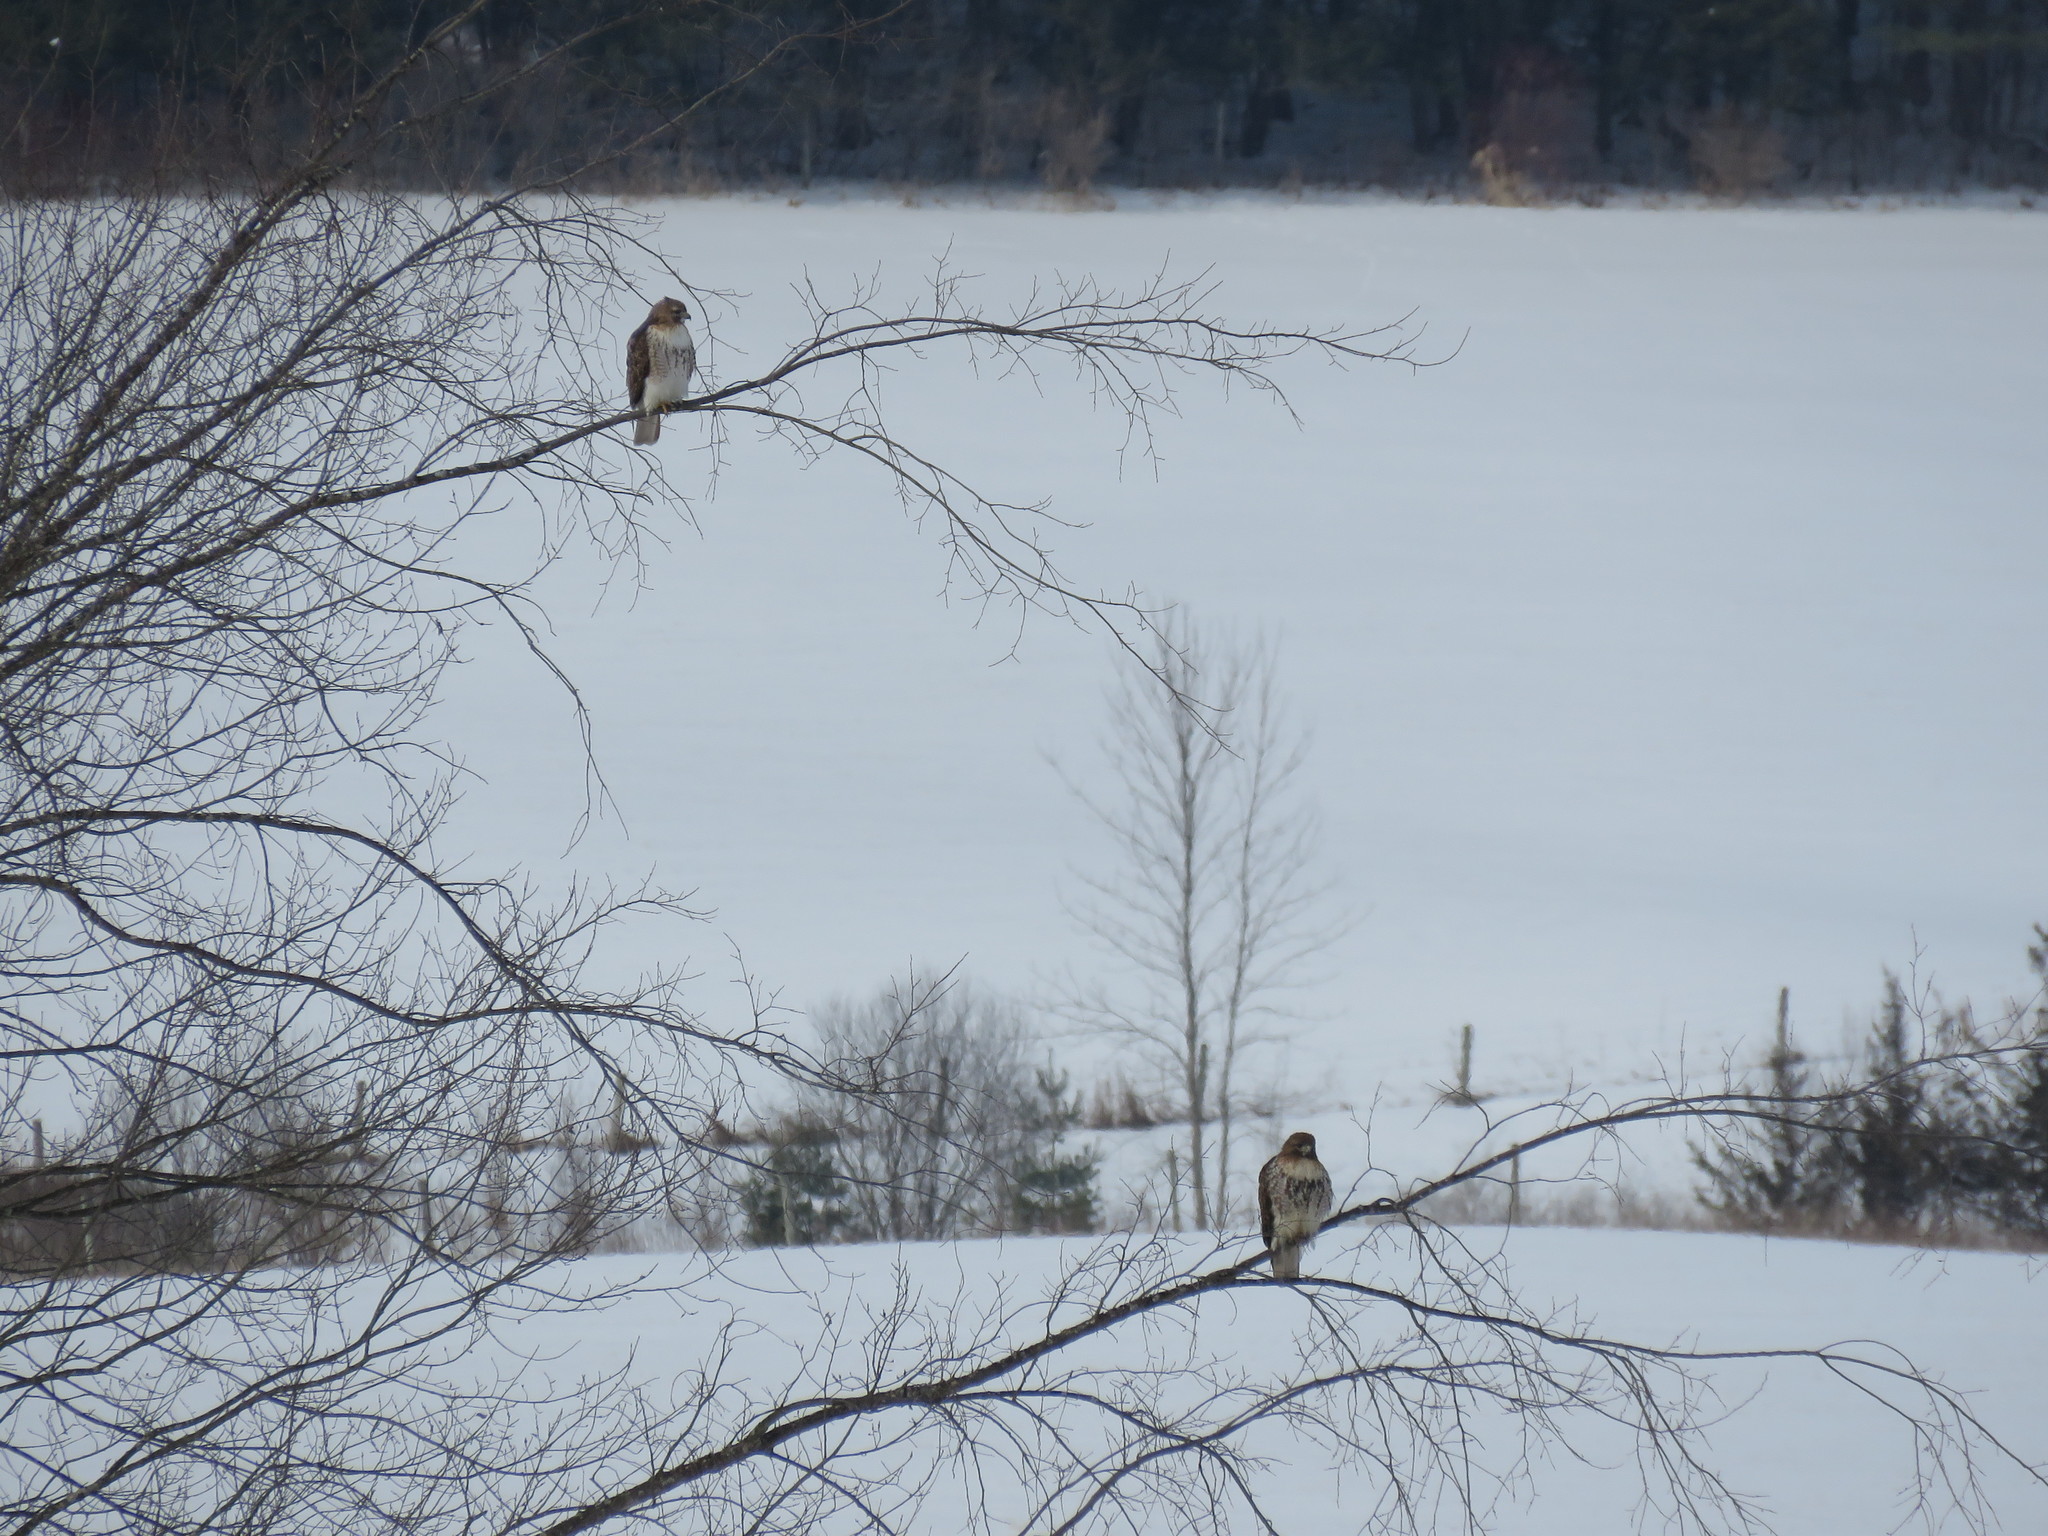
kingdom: Animalia
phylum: Chordata
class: Aves
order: Accipitriformes
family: Accipitridae
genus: Buteo
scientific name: Buteo jamaicensis
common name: Red-tailed hawk
